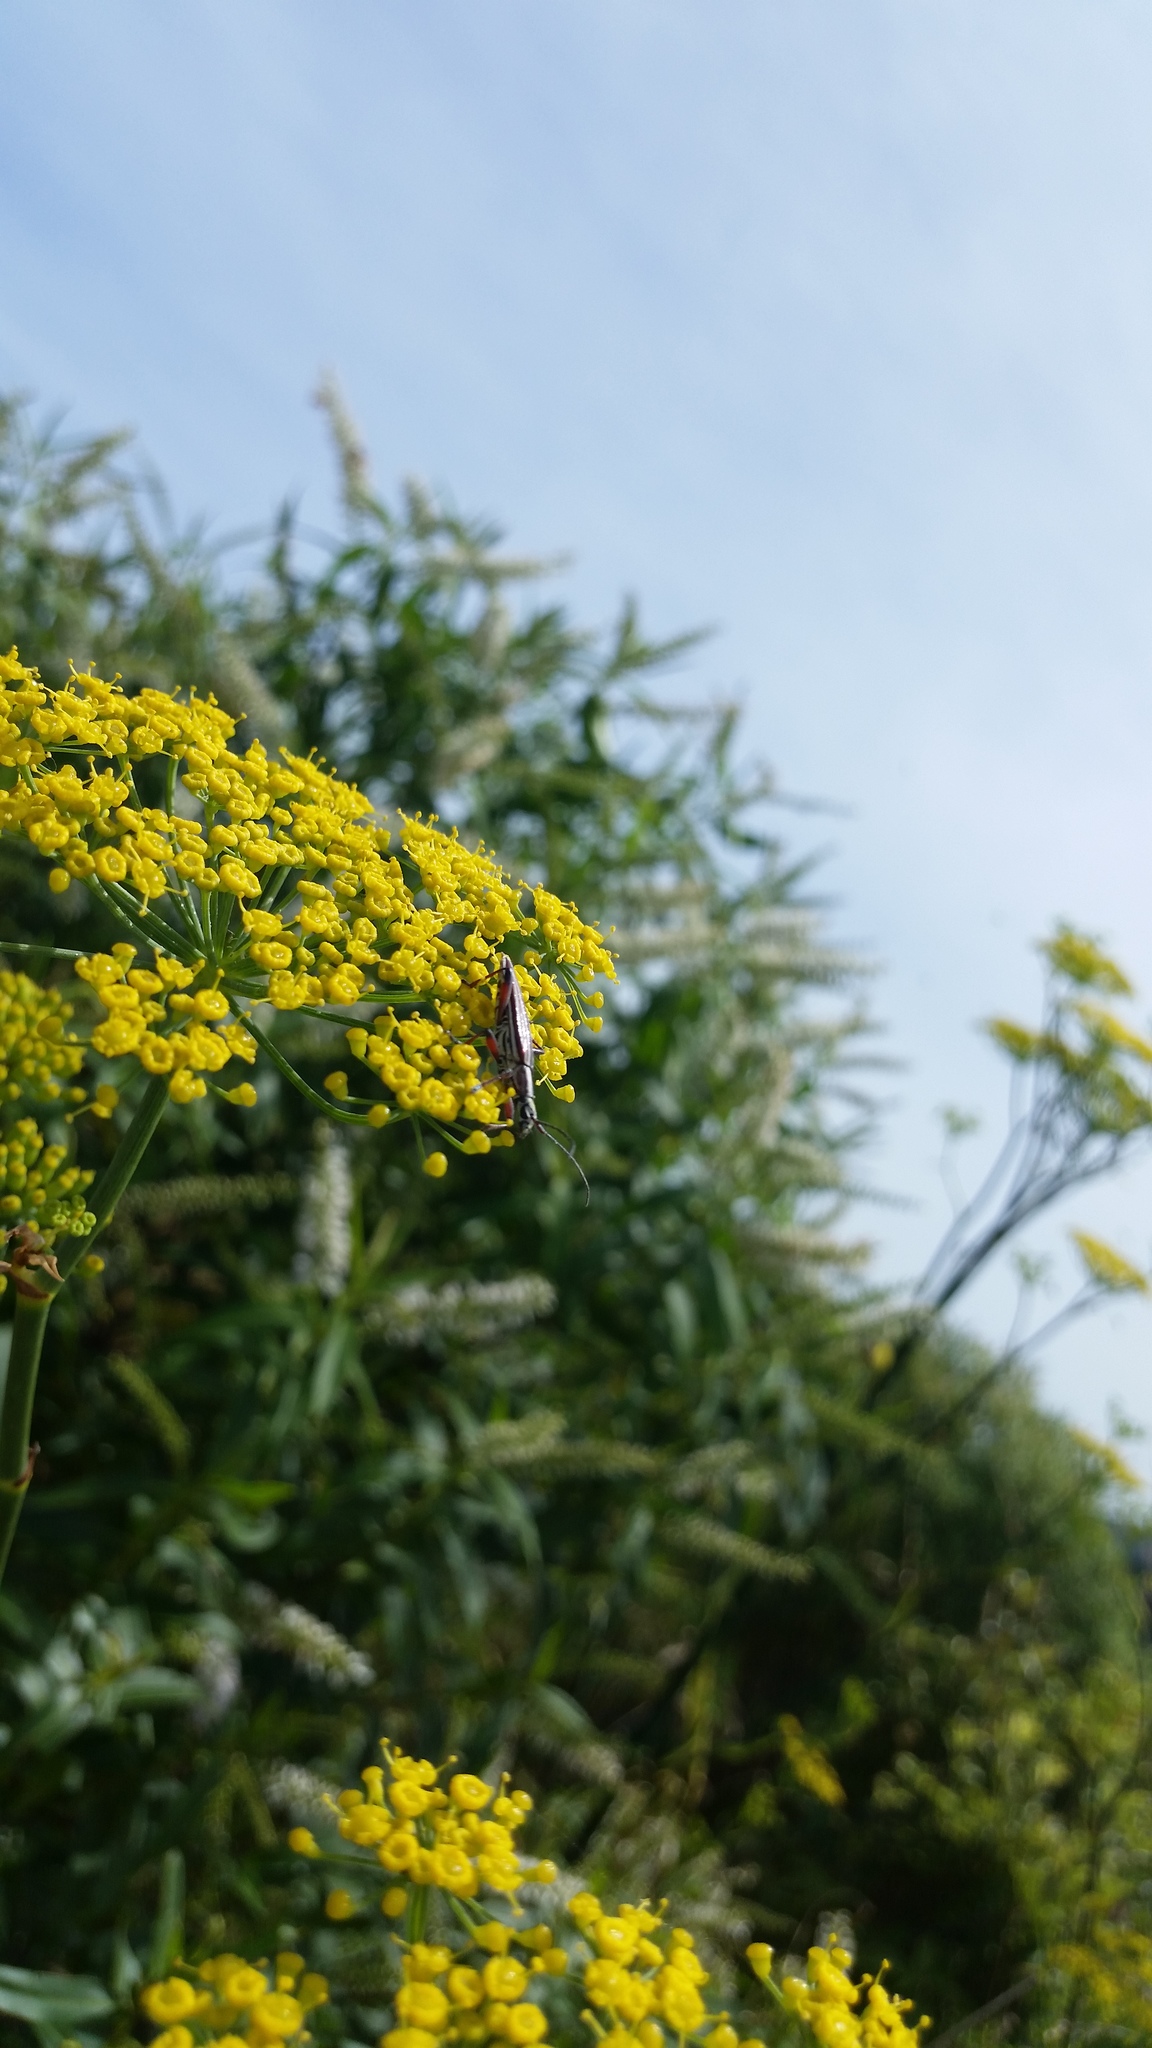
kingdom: Animalia
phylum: Arthropoda
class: Insecta
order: Coleoptera
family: Cerambycidae
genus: Coptomma
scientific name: Coptomma lineatum
